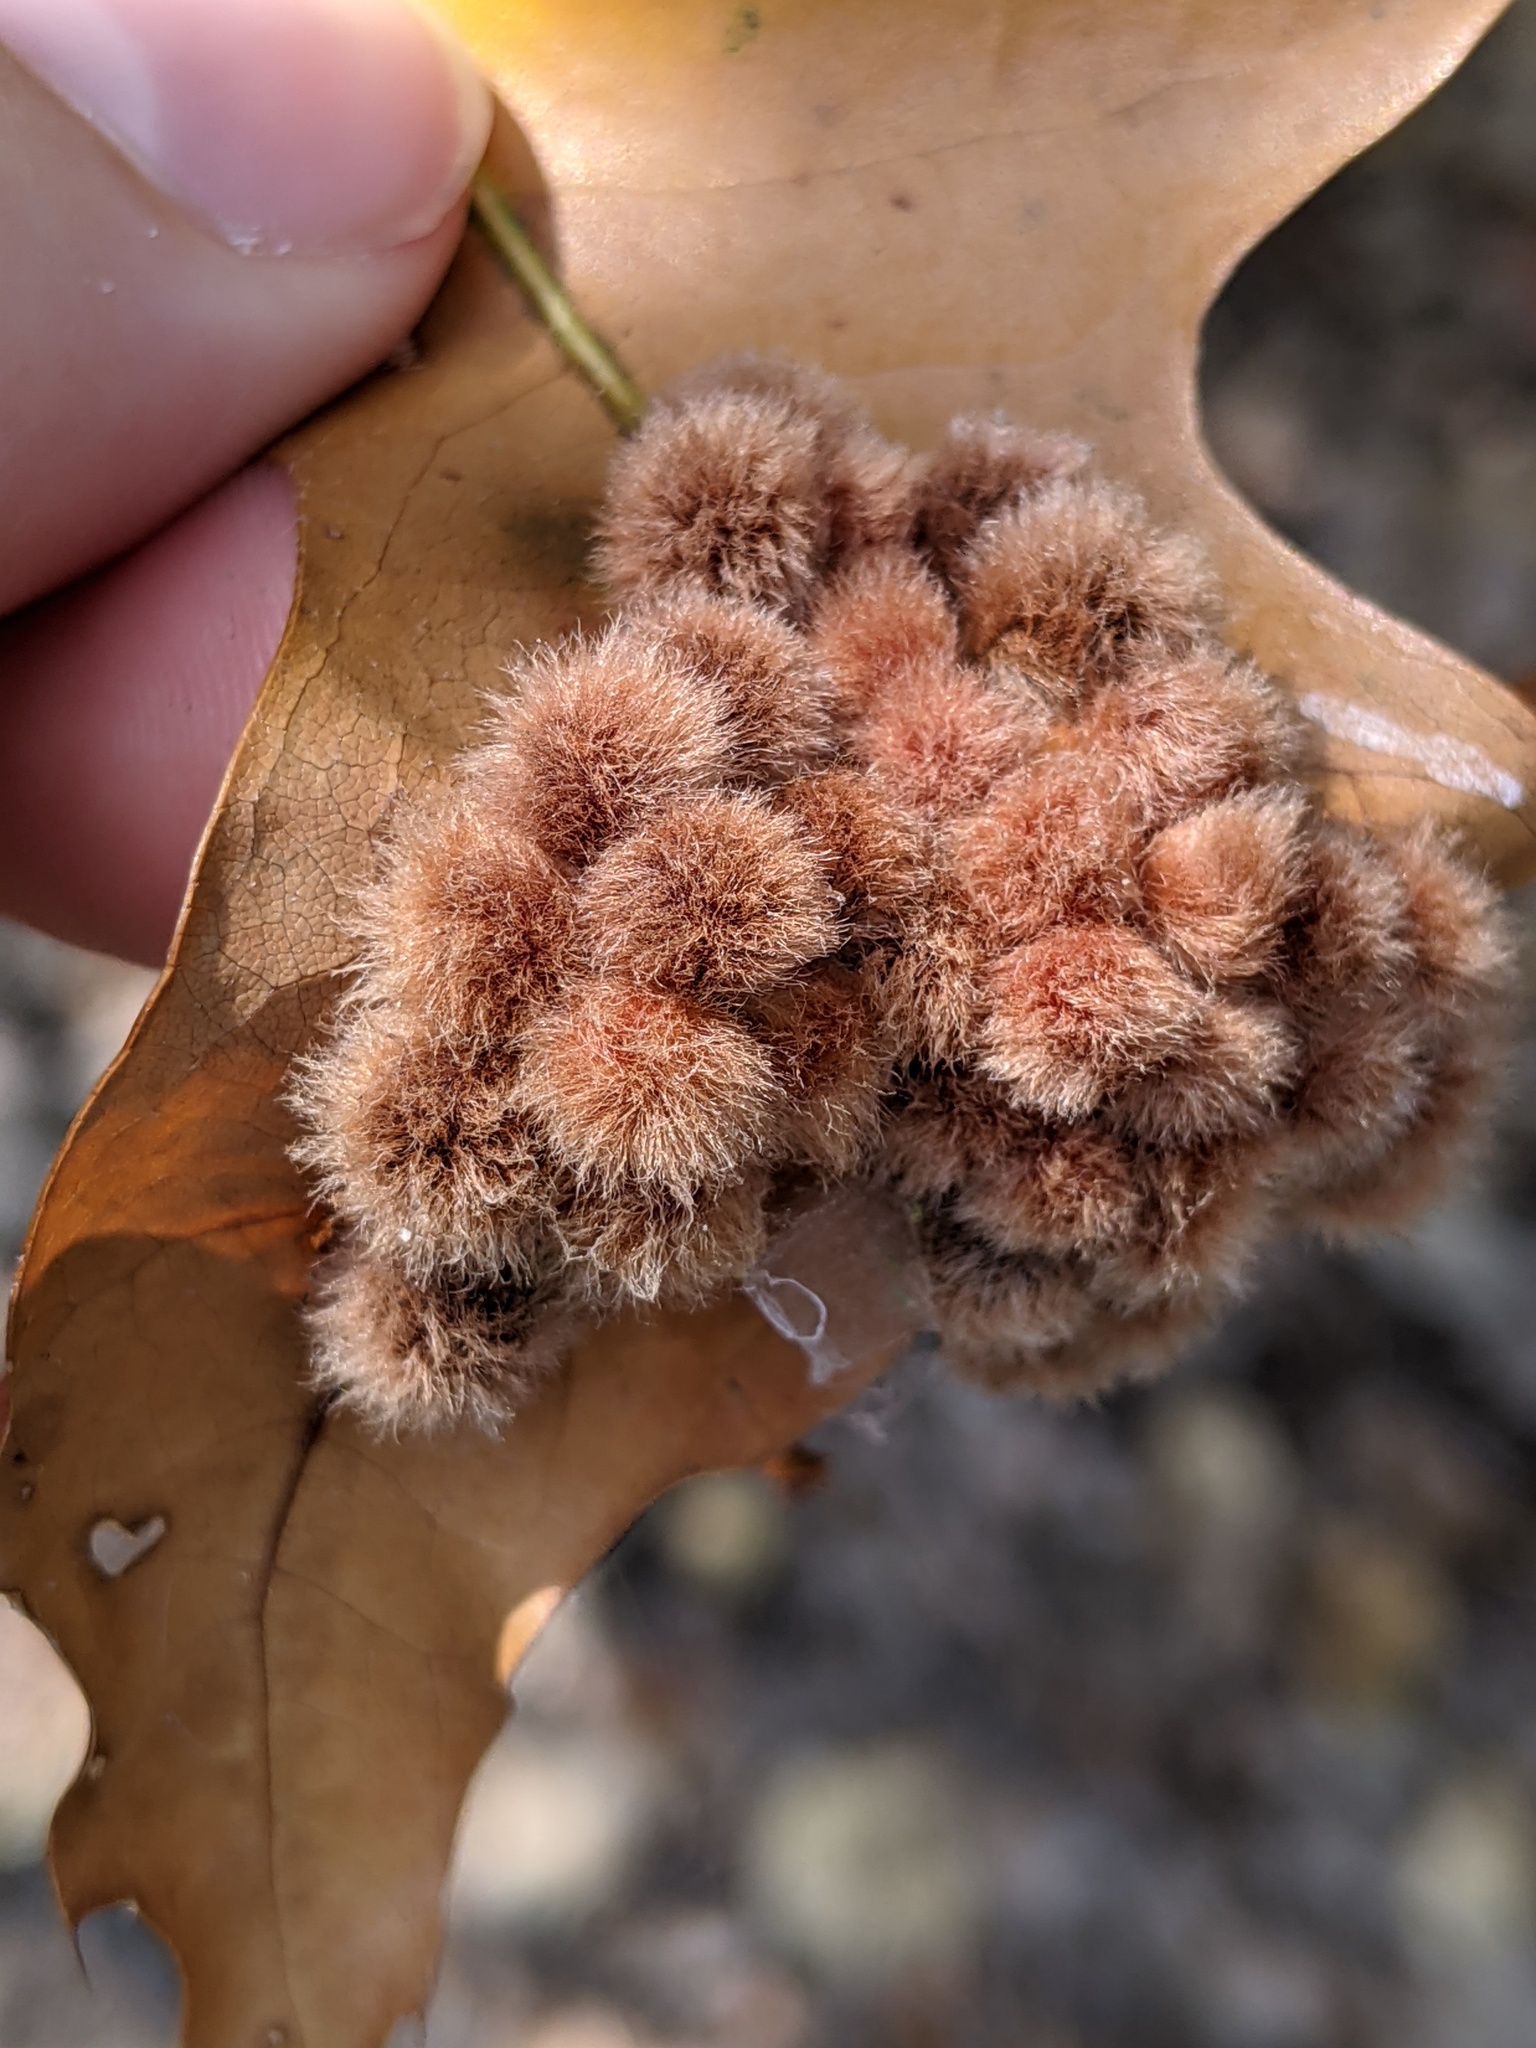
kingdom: Animalia
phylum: Arthropoda
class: Insecta
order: Hymenoptera
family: Cynipidae
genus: Callirhytis
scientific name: Callirhytis
